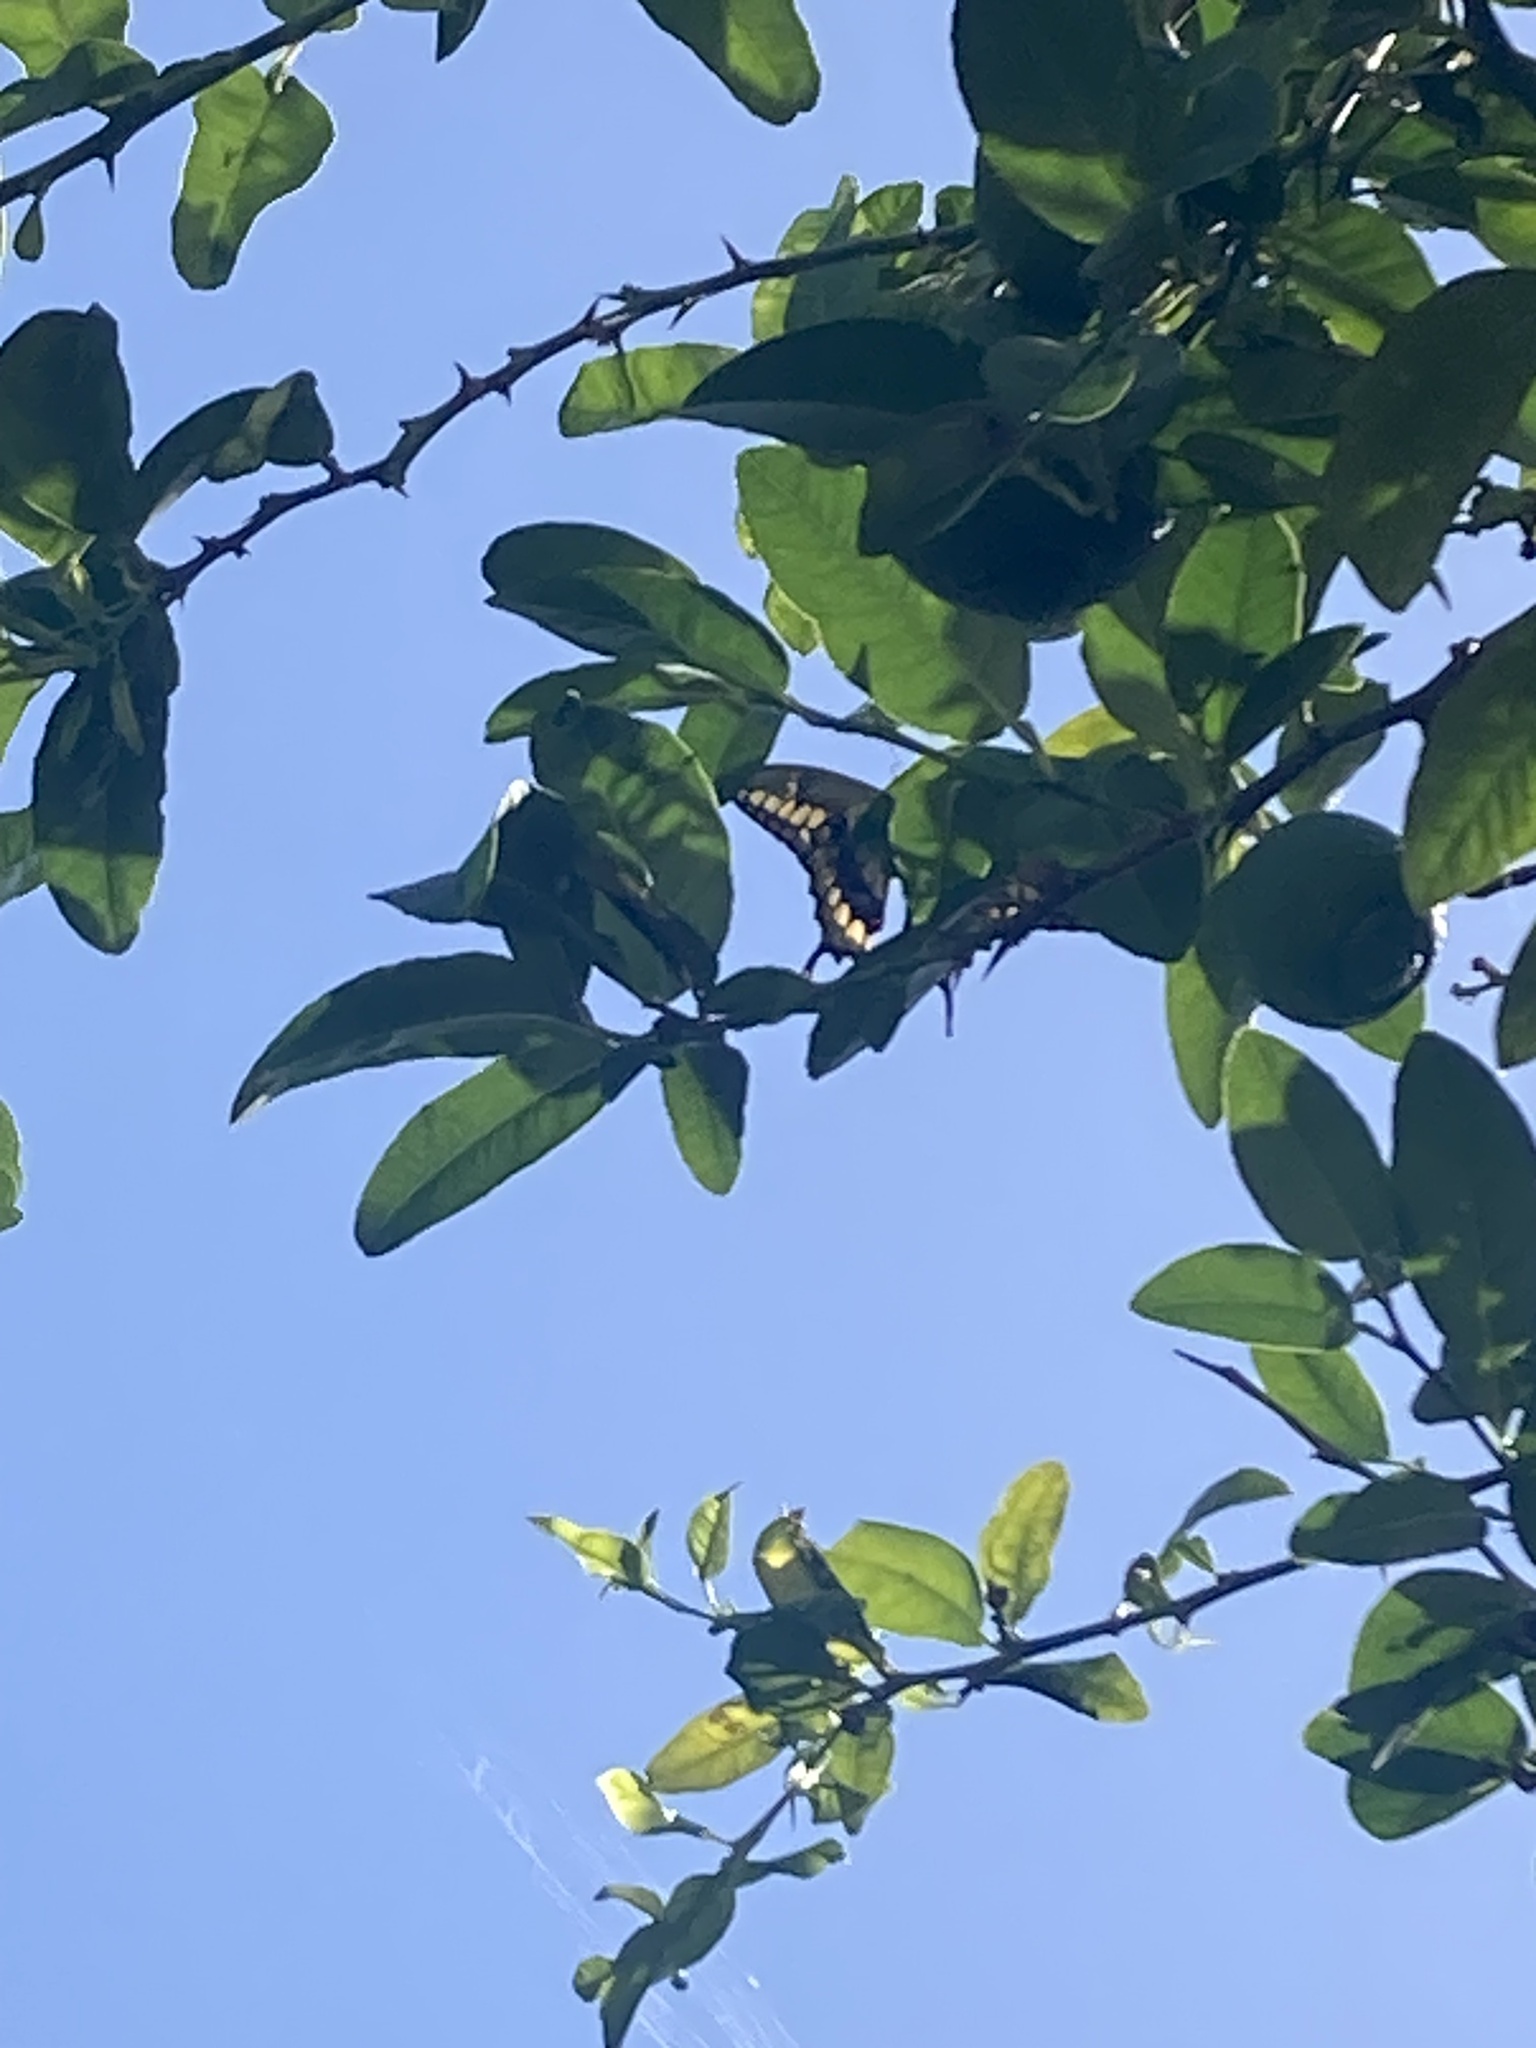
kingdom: Animalia
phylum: Arthropoda
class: Insecta
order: Lepidoptera
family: Papilionidae
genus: Papilio
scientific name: Papilio rumiko
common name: Western giant swallowtail
